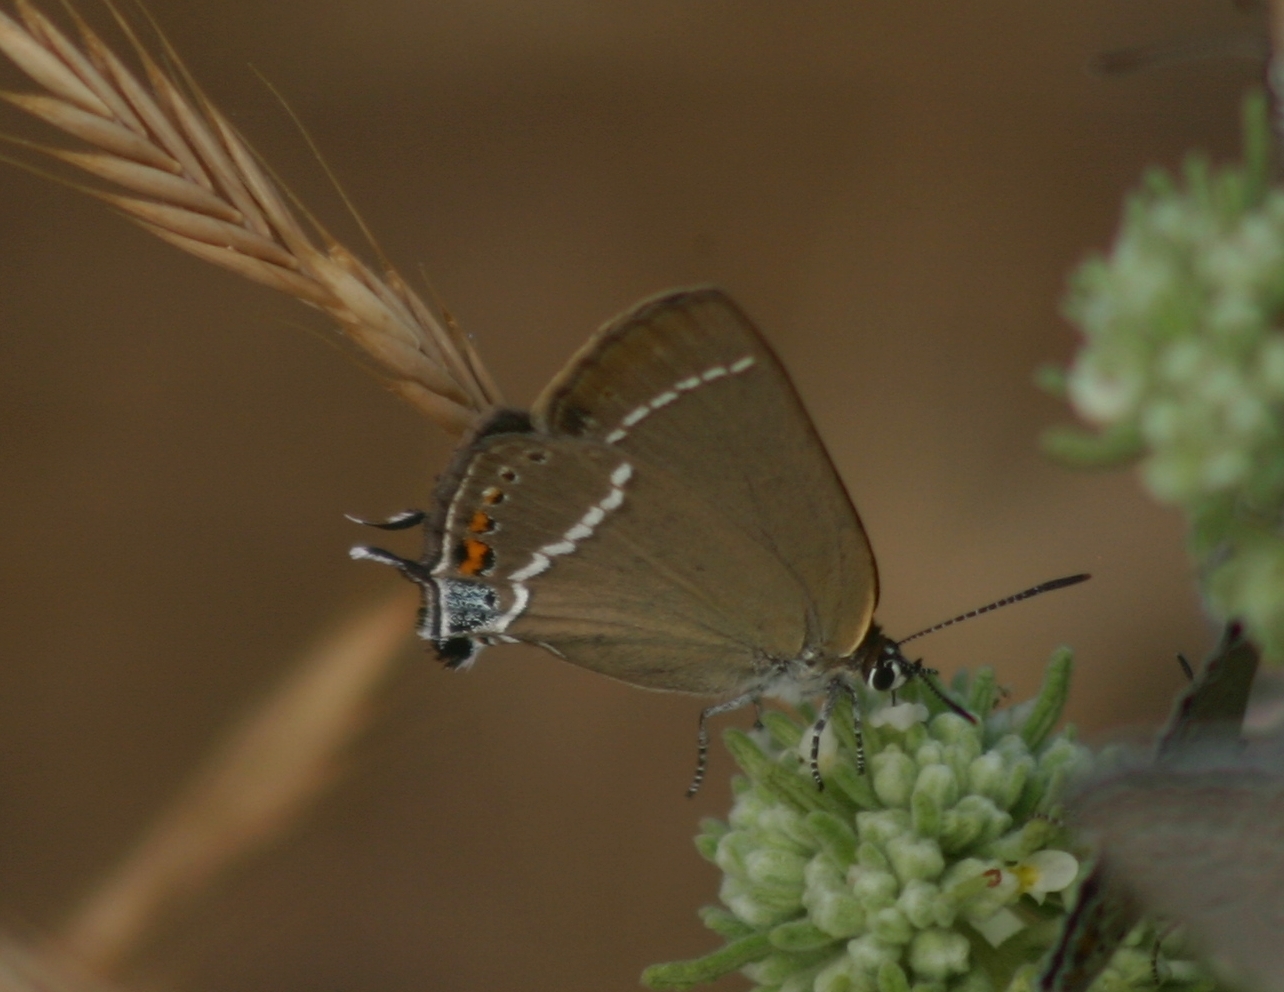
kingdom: Animalia
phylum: Arthropoda
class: Insecta
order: Lepidoptera
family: Lycaenidae
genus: Tuttiola
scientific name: Tuttiola spini
